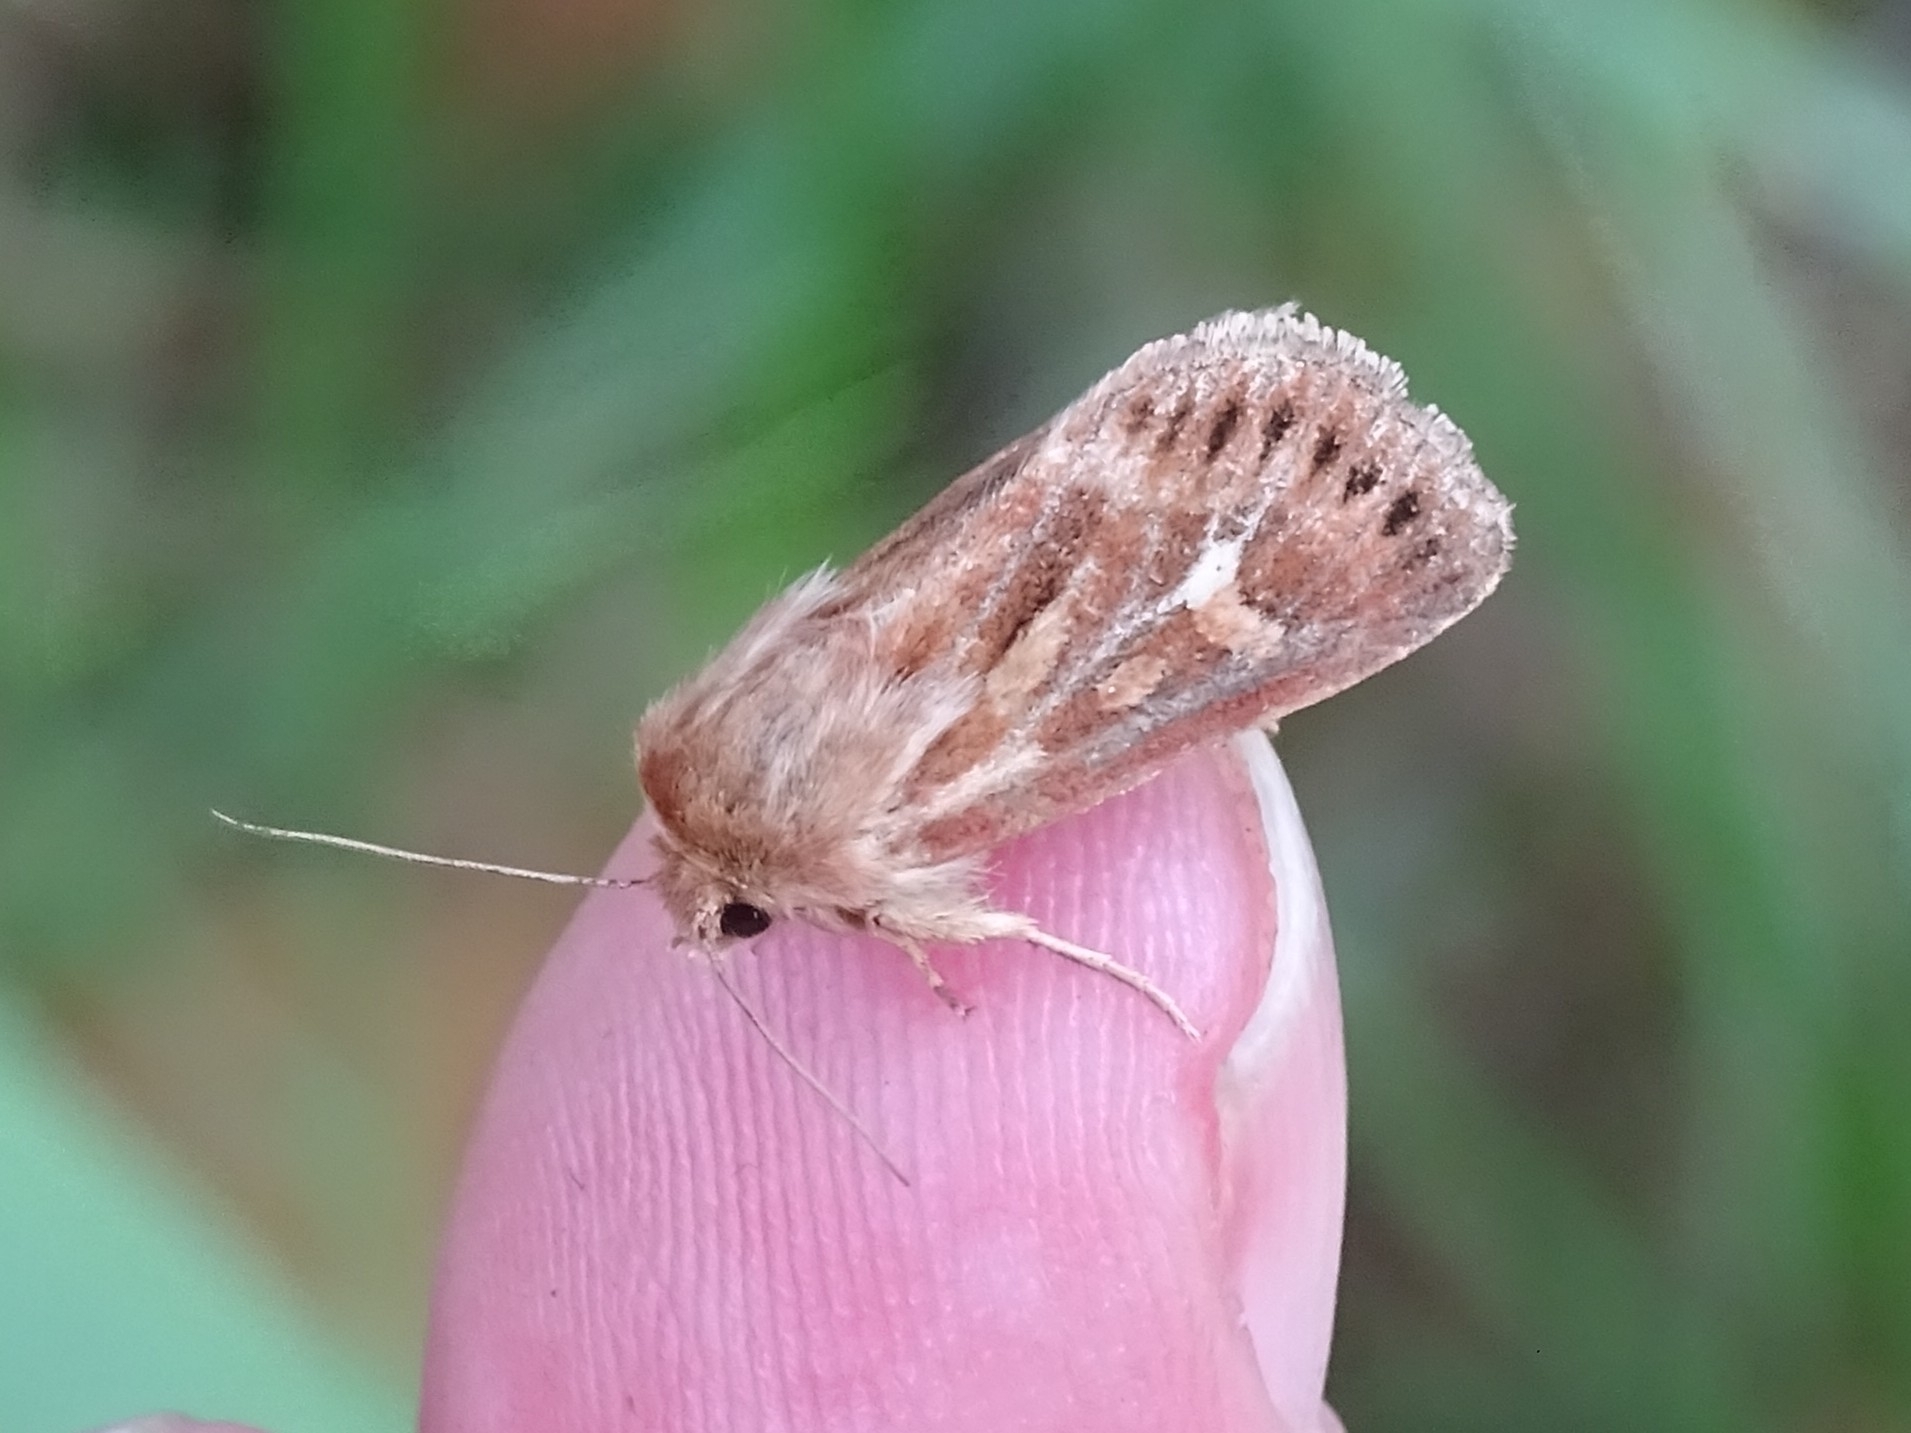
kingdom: Animalia
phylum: Arthropoda
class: Insecta
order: Lepidoptera
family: Noctuidae
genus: Cerapteryx
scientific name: Cerapteryx graminis
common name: Antler moth
